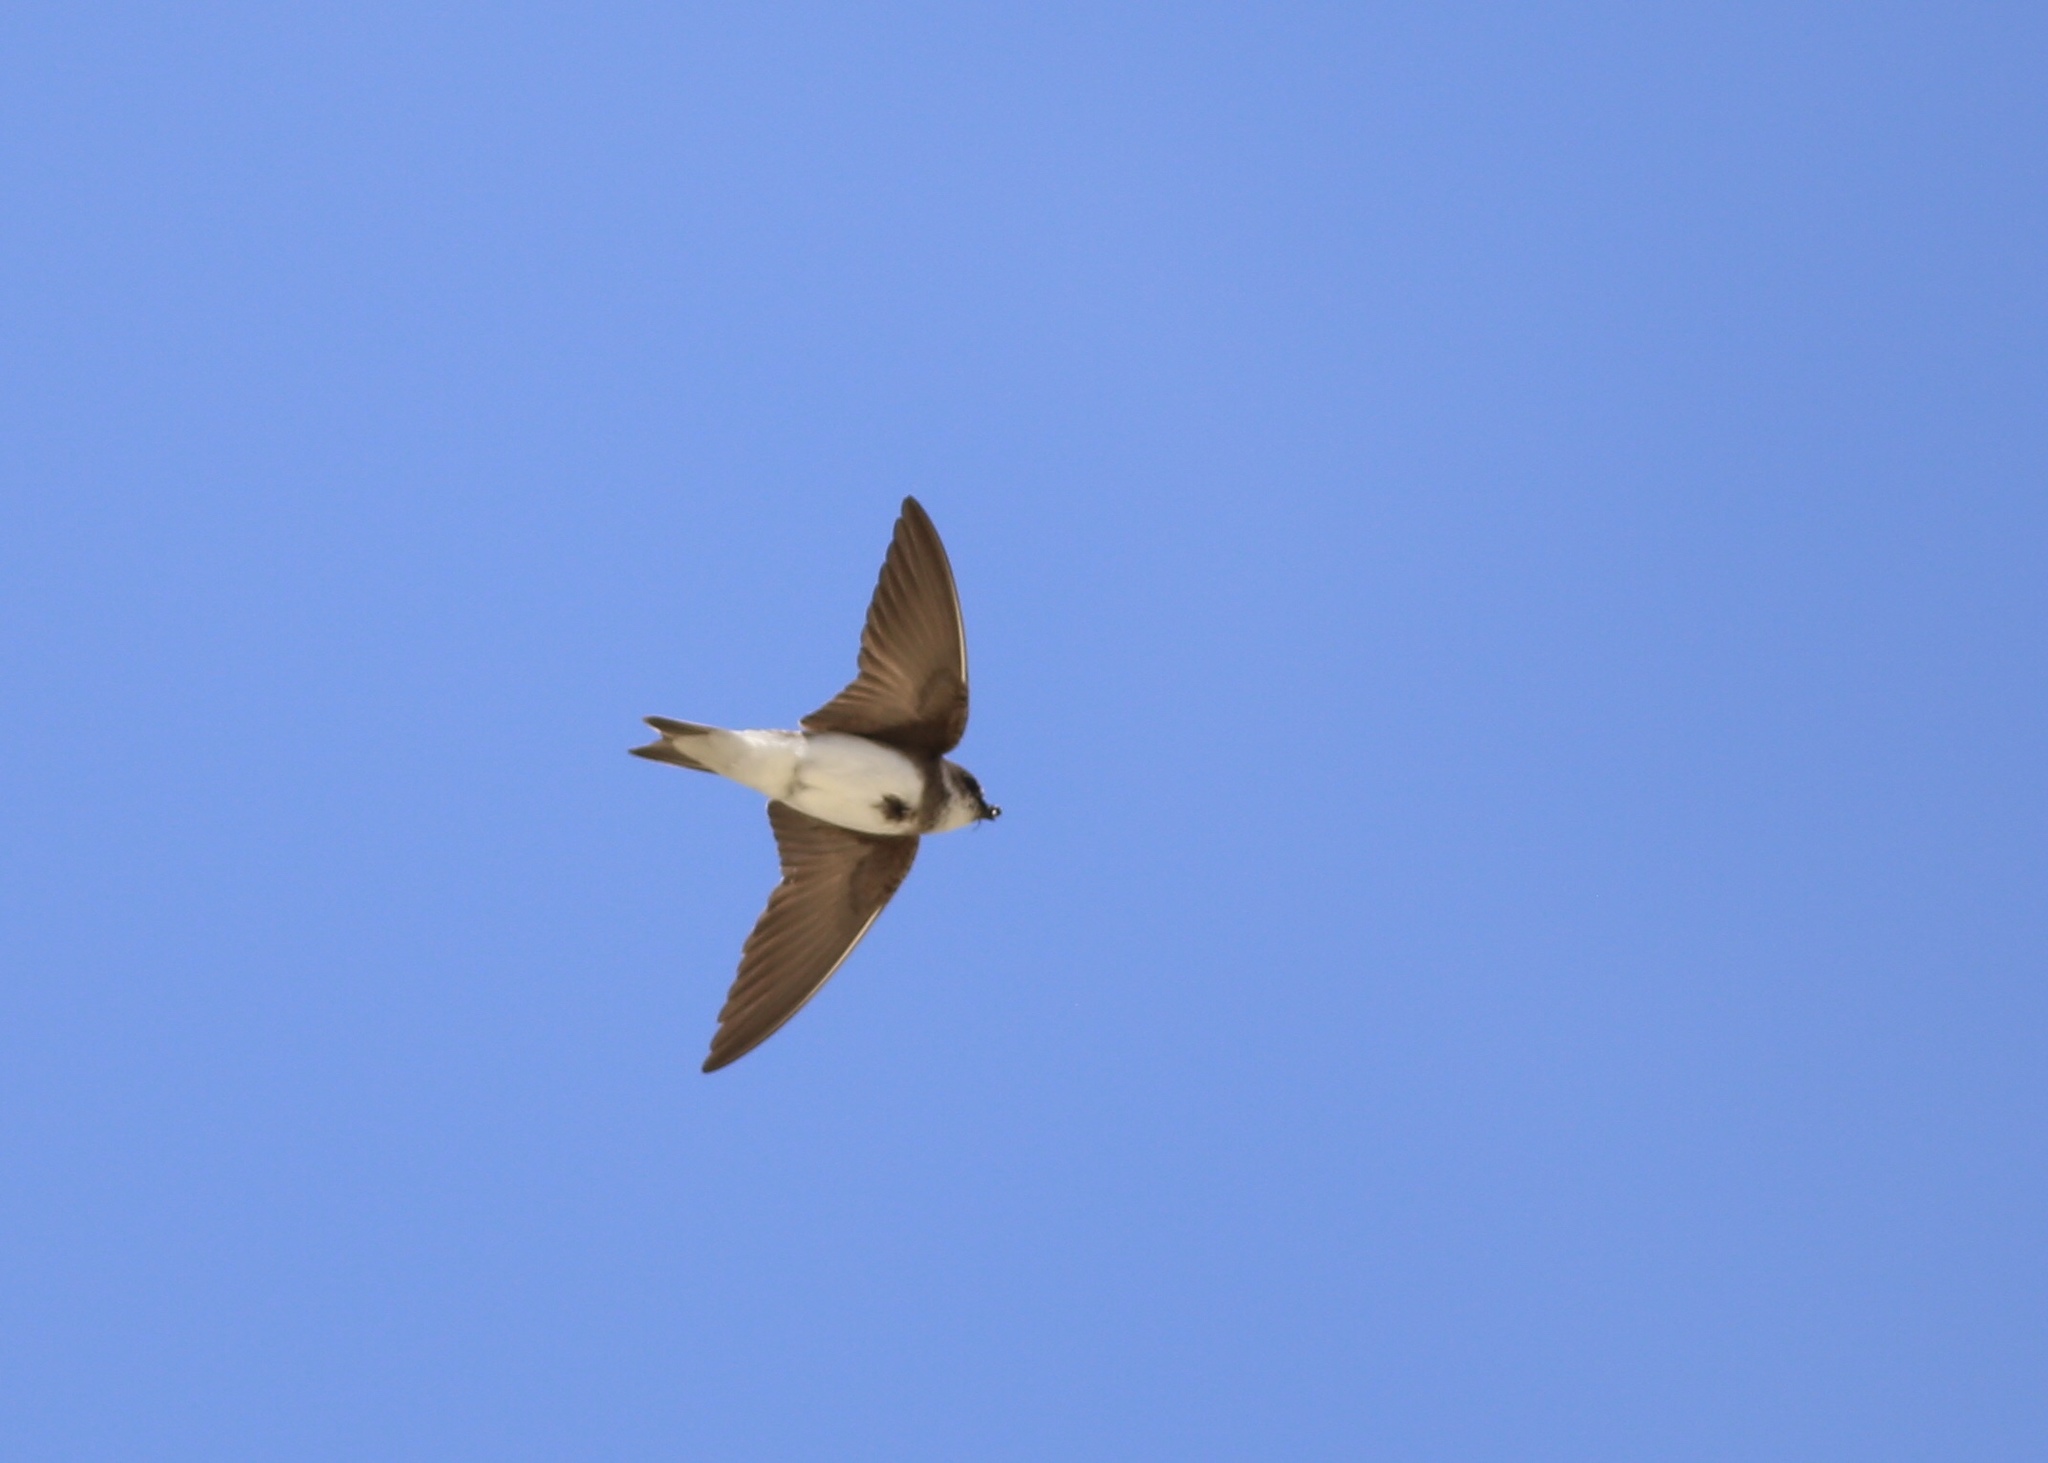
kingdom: Animalia
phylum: Chordata
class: Aves
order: Passeriformes
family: Hirundinidae
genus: Riparia
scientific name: Riparia riparia
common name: Sand martin
